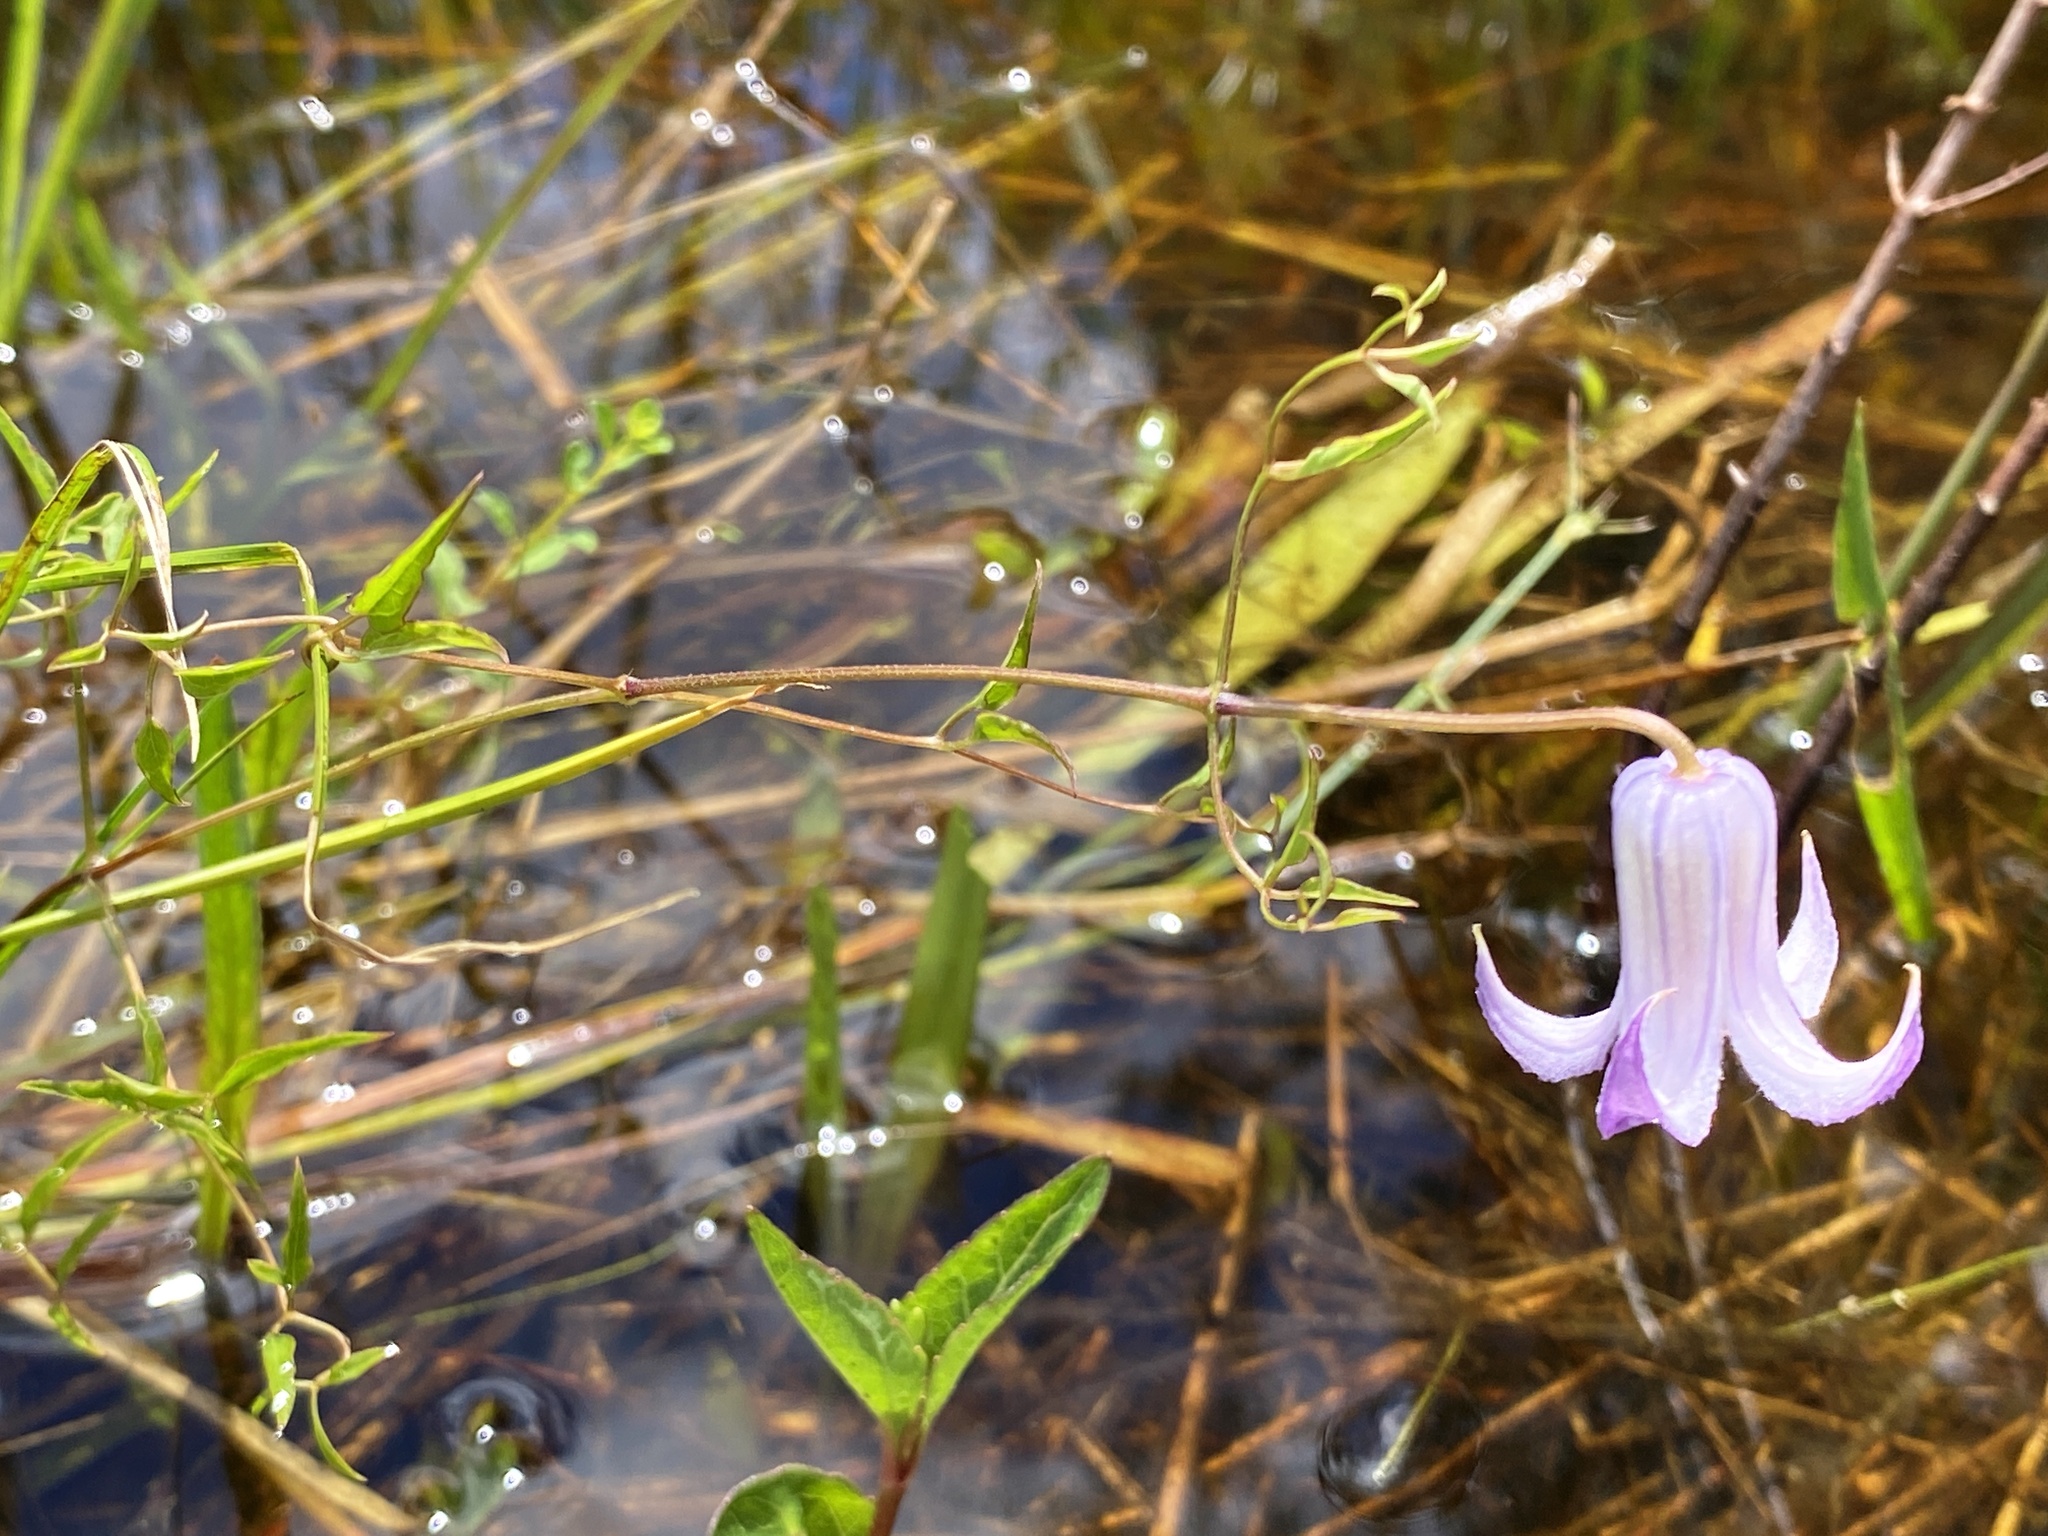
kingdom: Plantae
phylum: Tracheophyta
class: Magnoliopsida
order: Ranunculales
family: Ranunculaceae
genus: Clematis
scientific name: Clematis crispa
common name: Curly clematis
